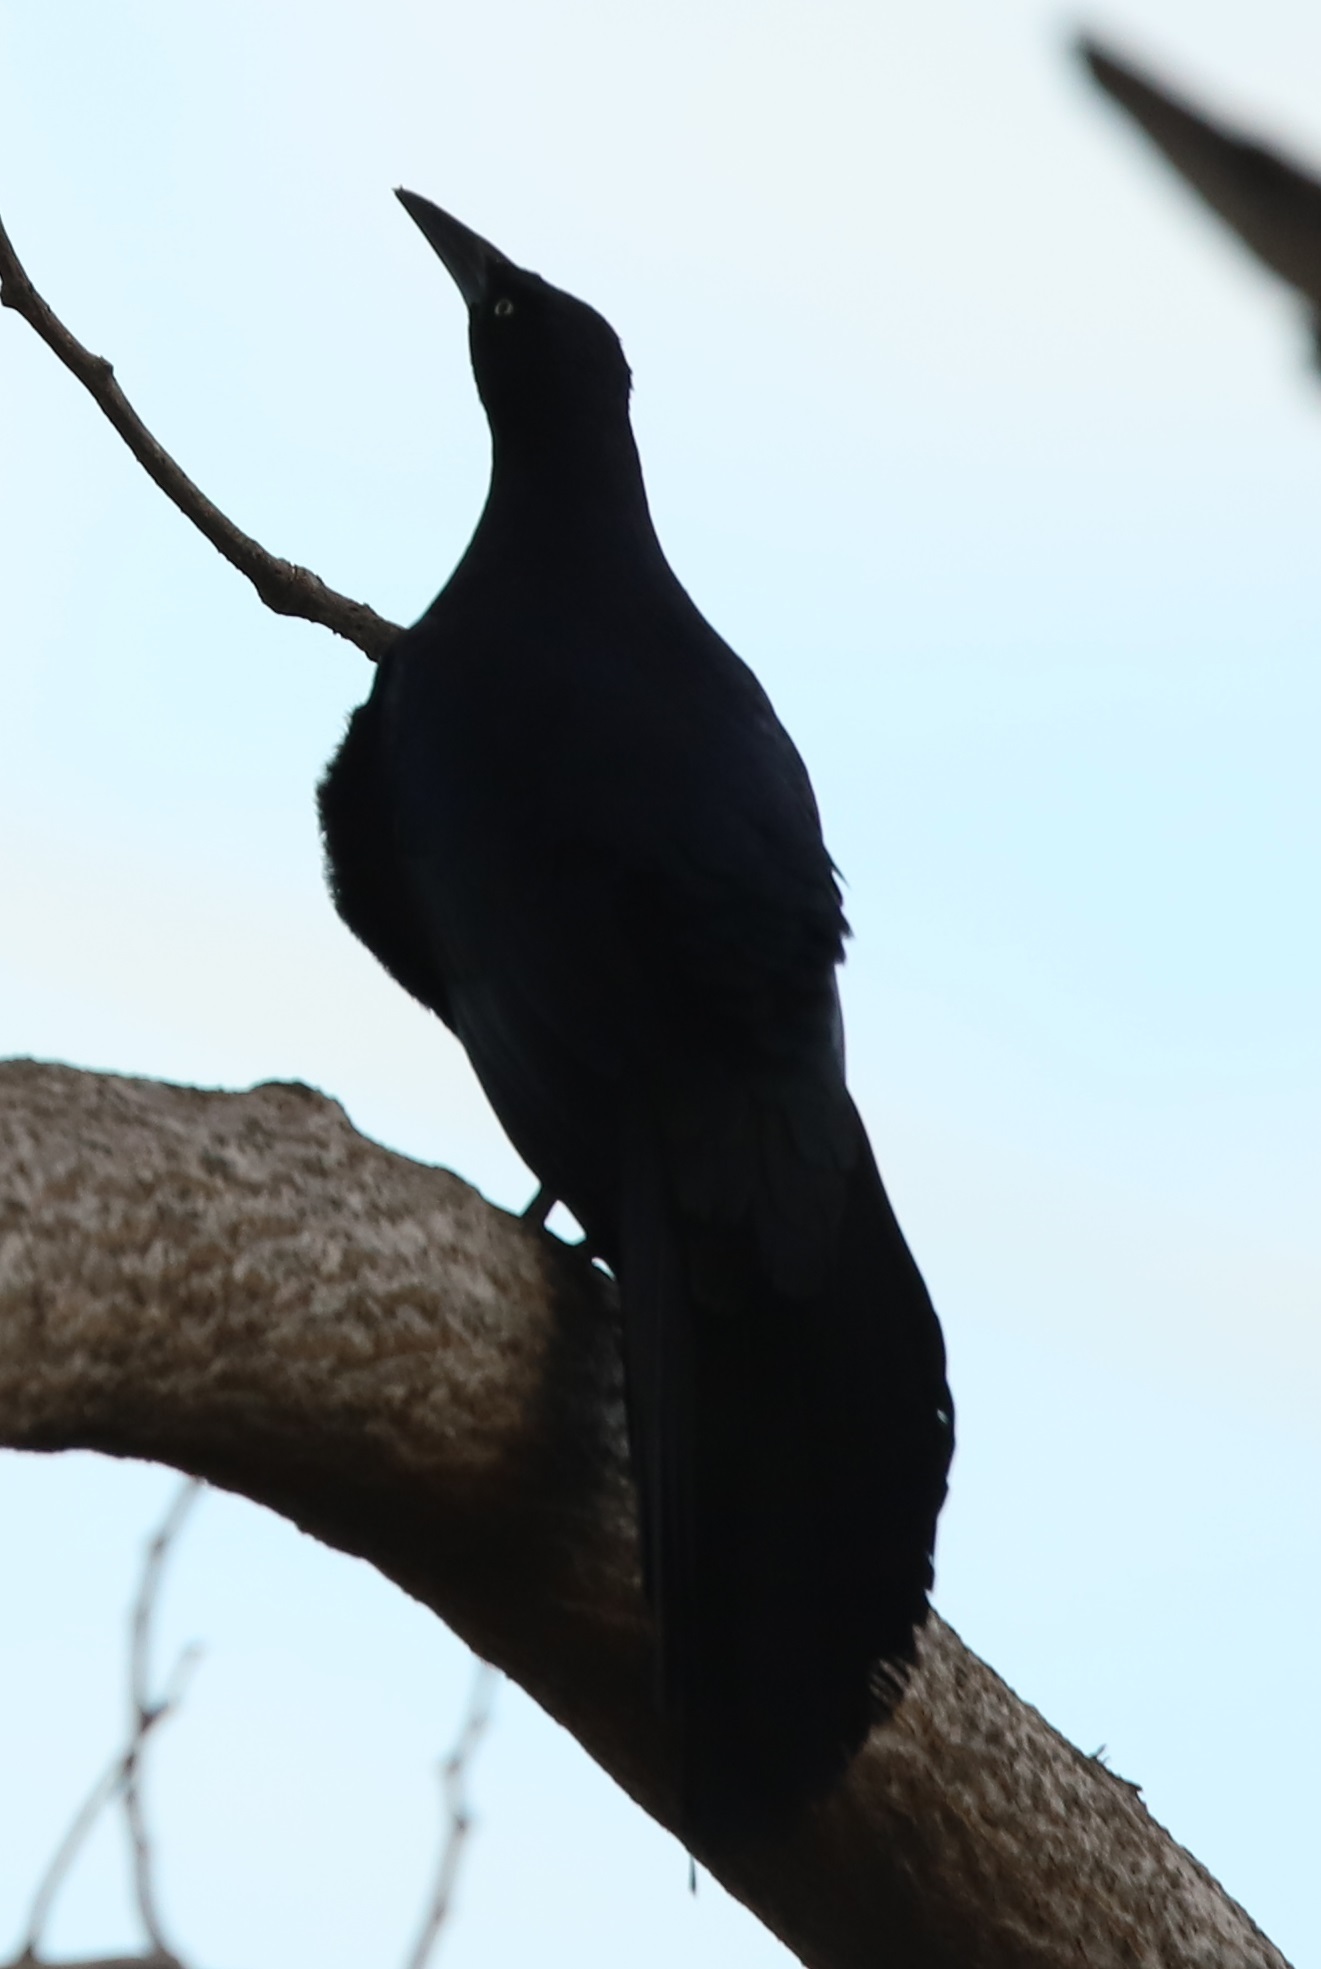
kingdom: Animalia
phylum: Chordata
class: Aves
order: Passeriformes
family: Icteridae
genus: Quiscalus
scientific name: Quiscalus mexicanus
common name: Great-tailed grackle
